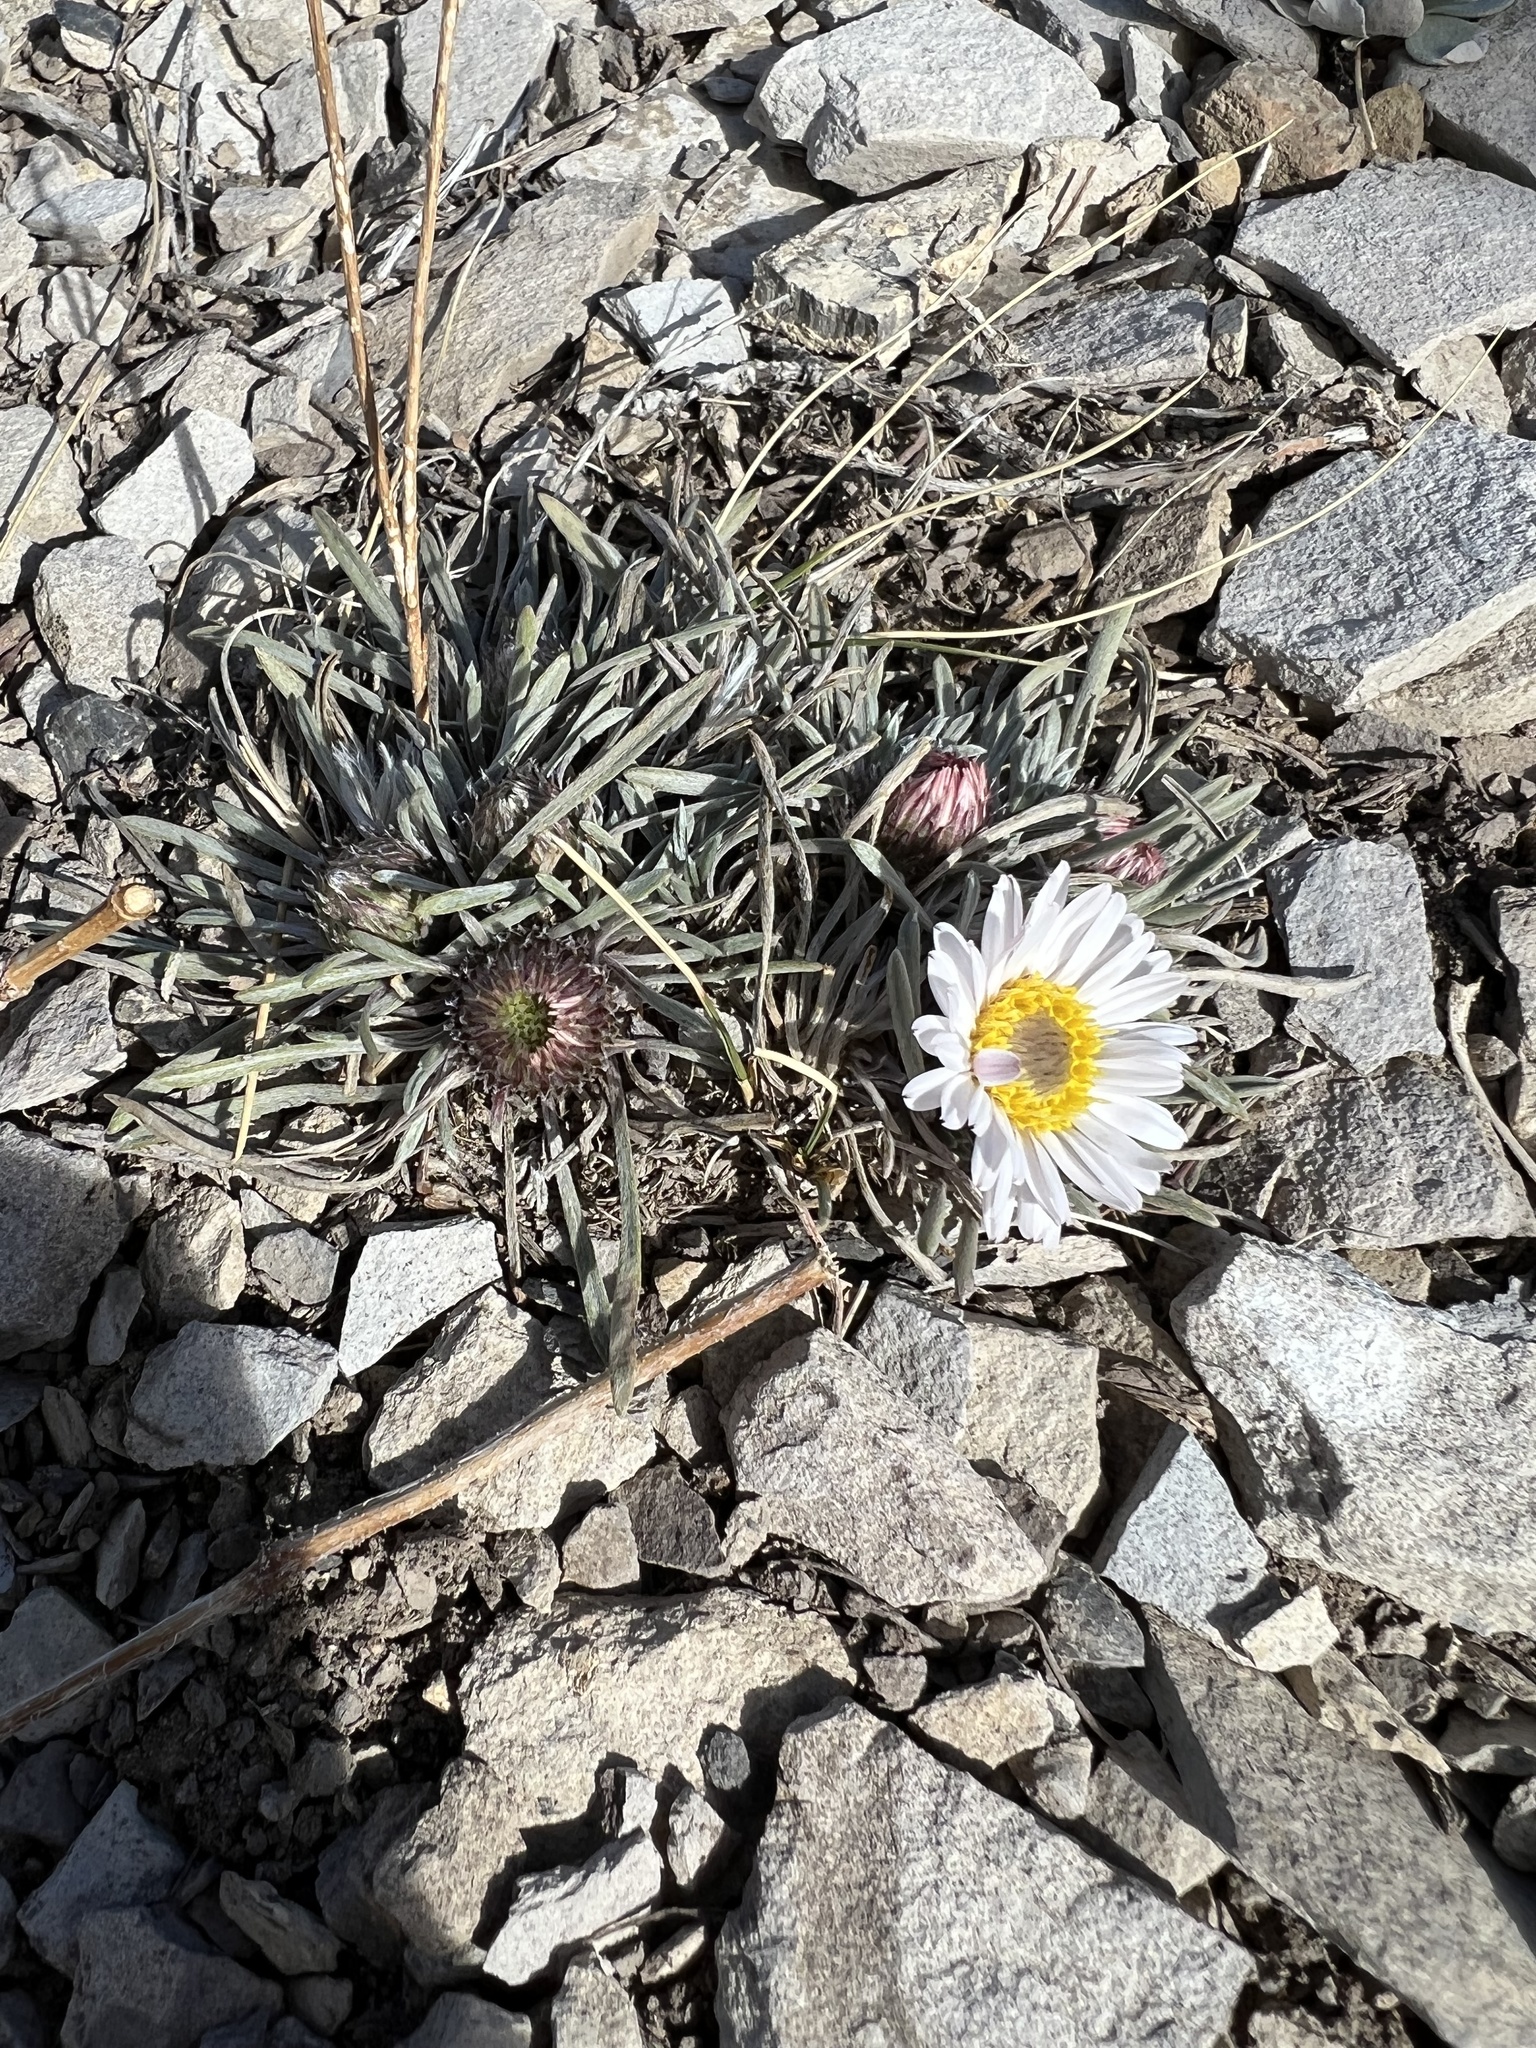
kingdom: Plantae
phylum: Tracheophyta
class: Magnoliopsida
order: Asterales
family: Asteraceae
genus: Townsendia
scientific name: Townsendia hookeri
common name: Hooker's townsend daisy
